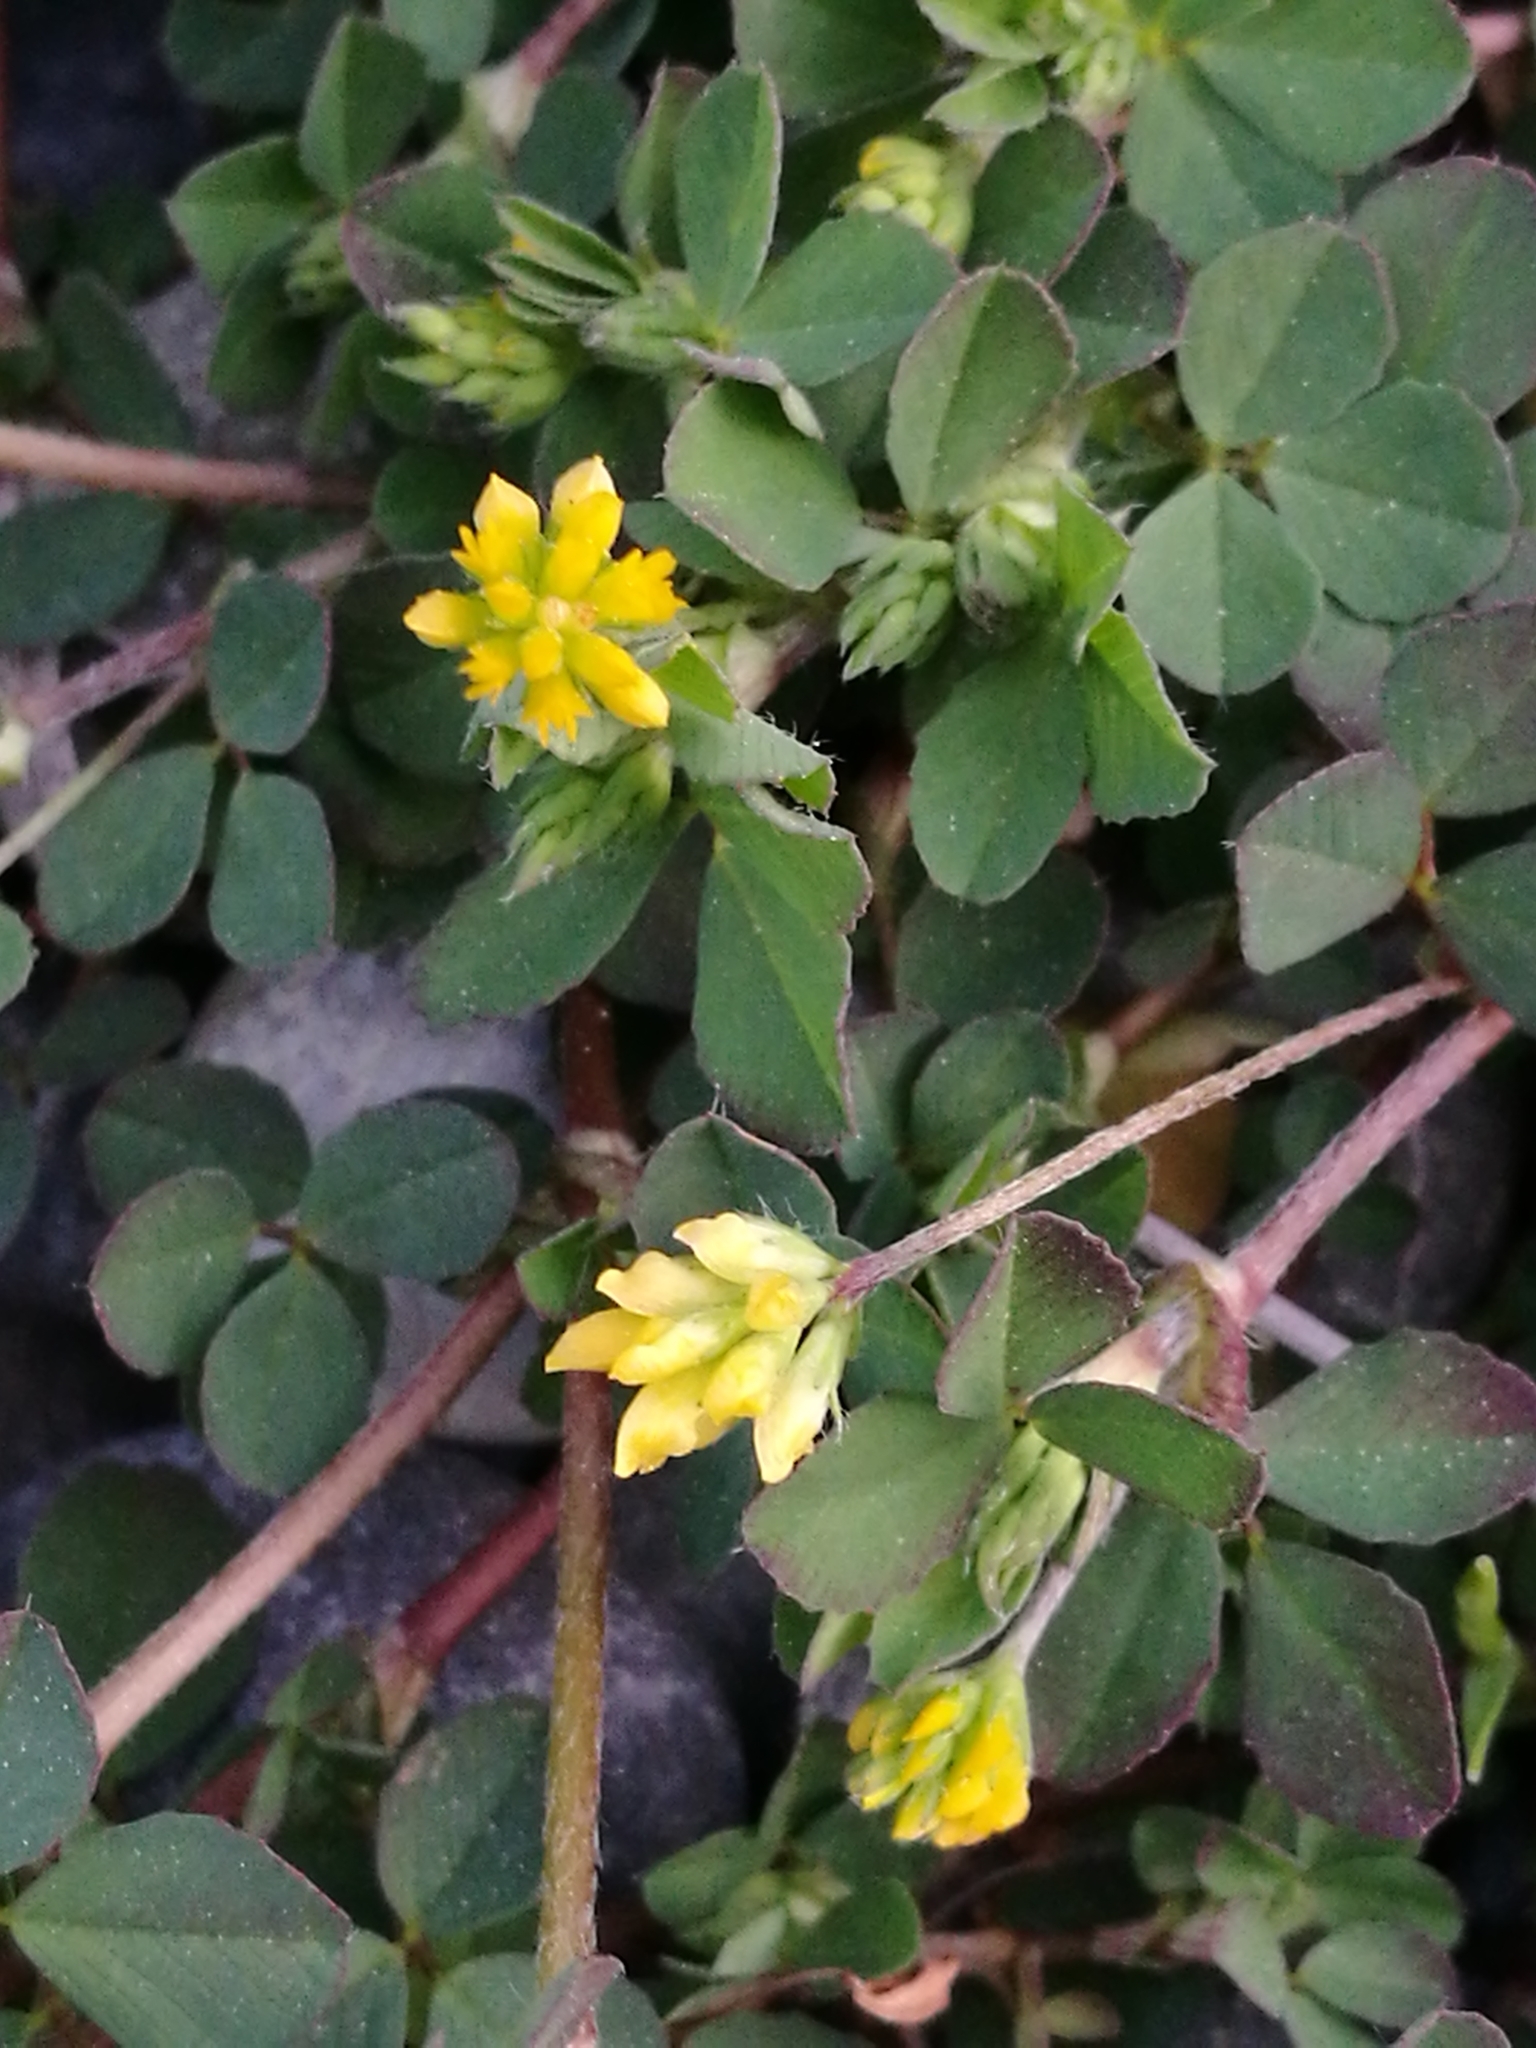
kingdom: Plantae
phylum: Tracheophyta
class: Magnoliopsida
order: Fabales
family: Fabaceae
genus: Trifolium
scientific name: Trifolium dubium
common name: Suckling clover
